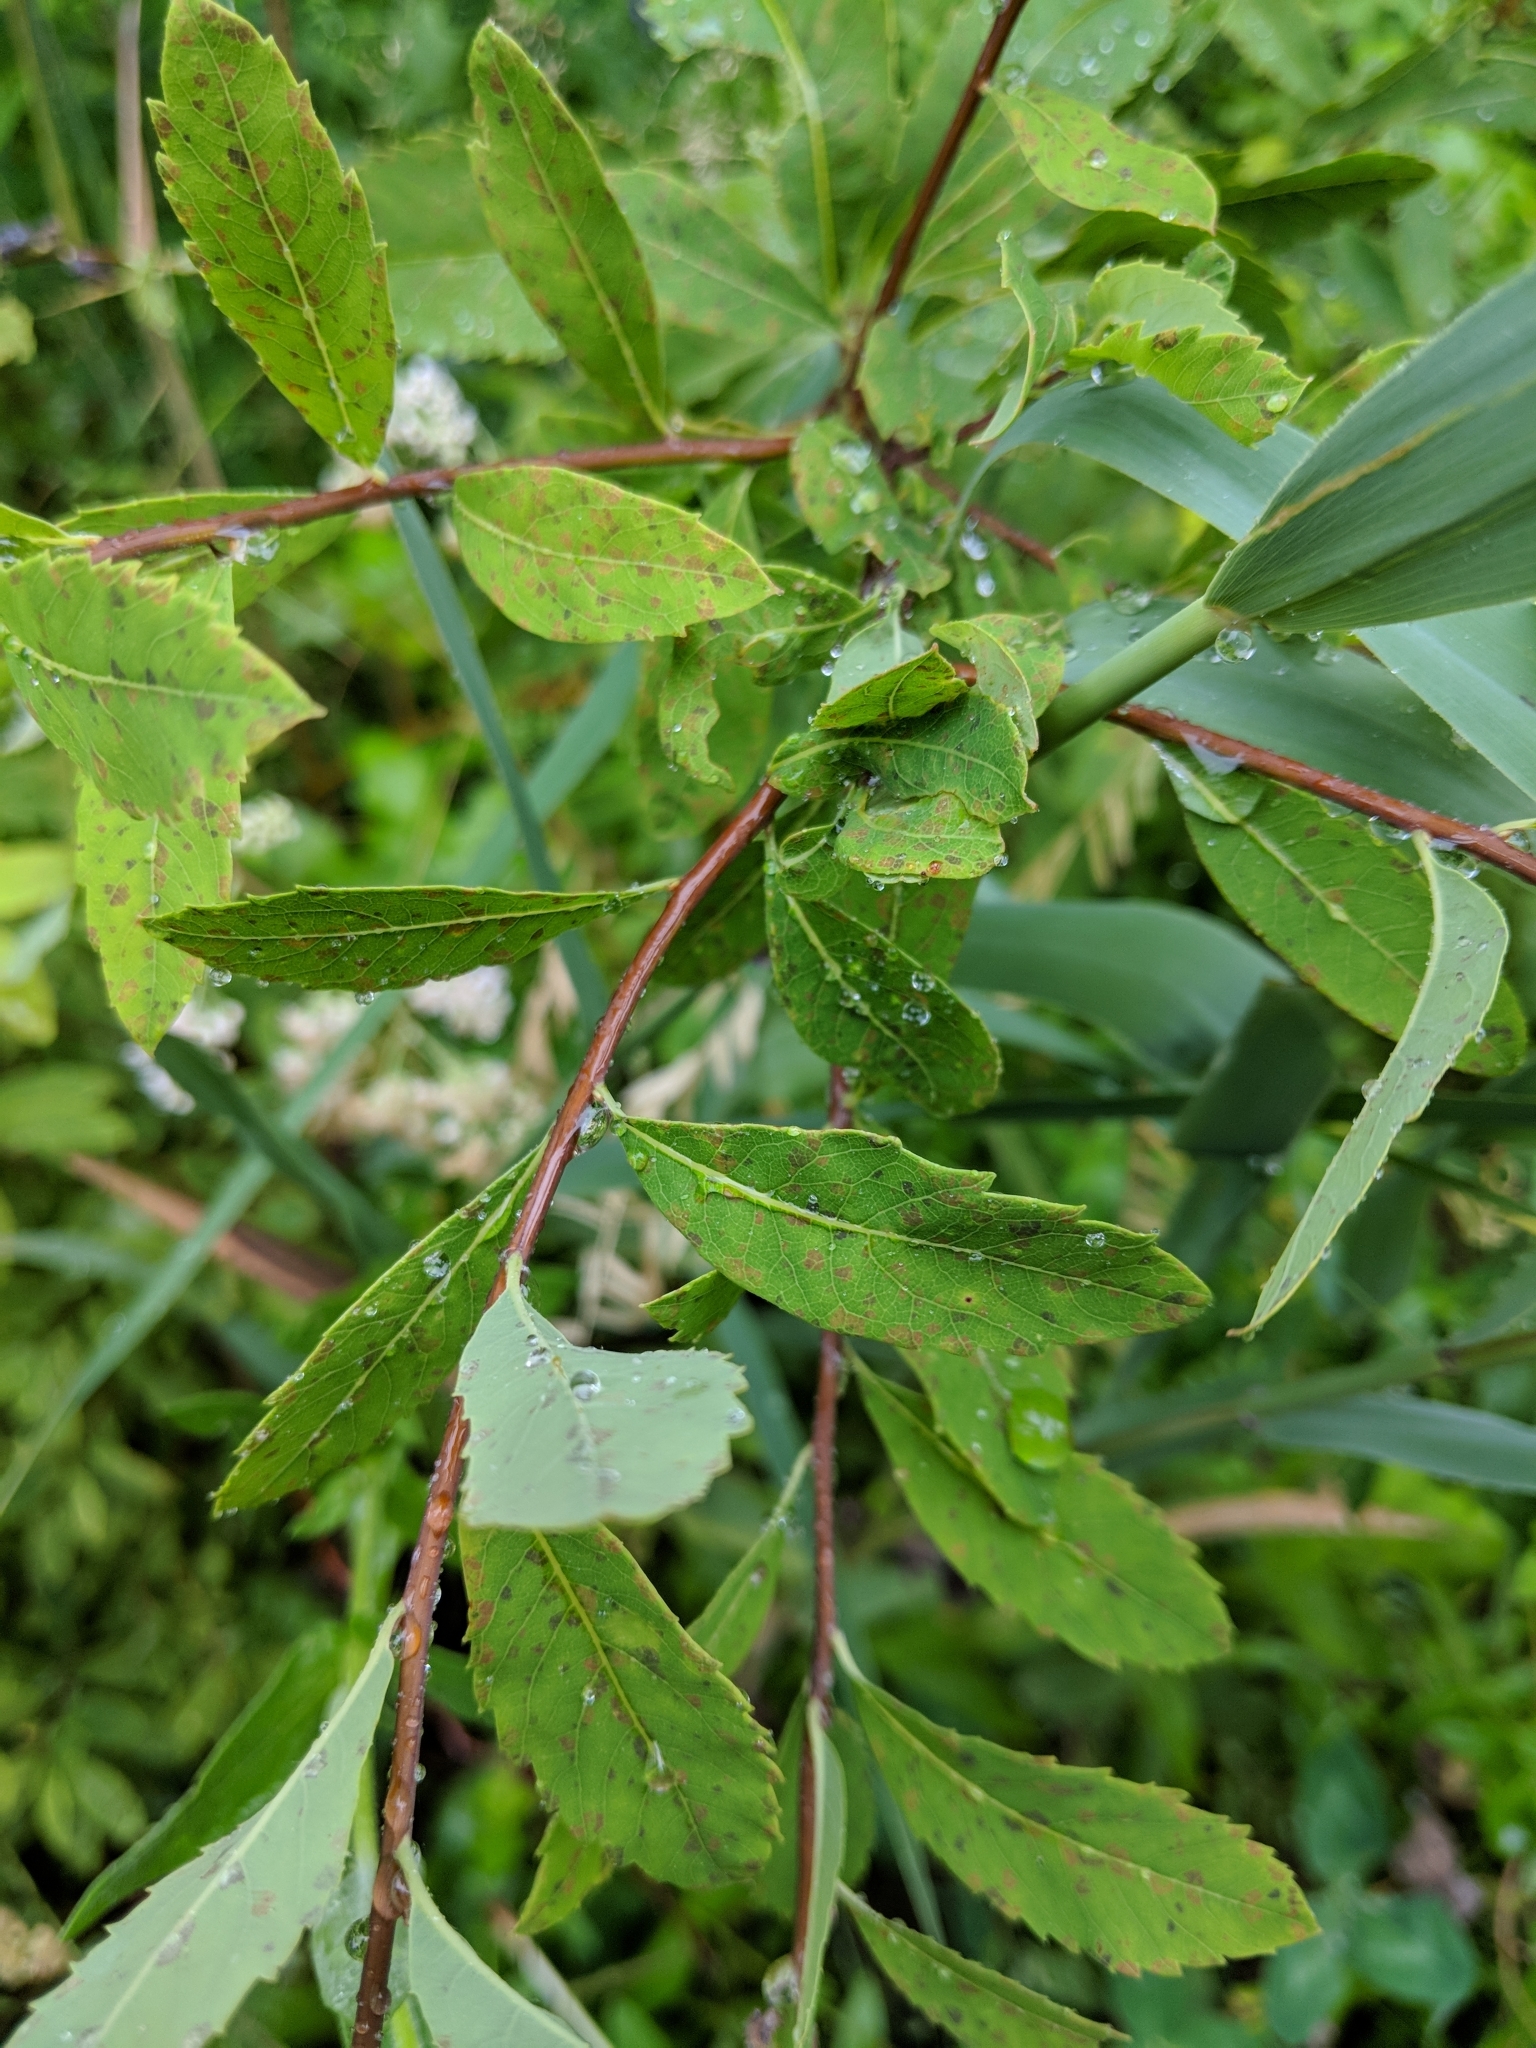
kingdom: Animalia
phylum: Arthropoda
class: Insecta
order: Diptera
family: Cecidomyiidae
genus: Rabdophaga
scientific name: Rabdophaga strobiloides
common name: Willow pinecone gall midge
